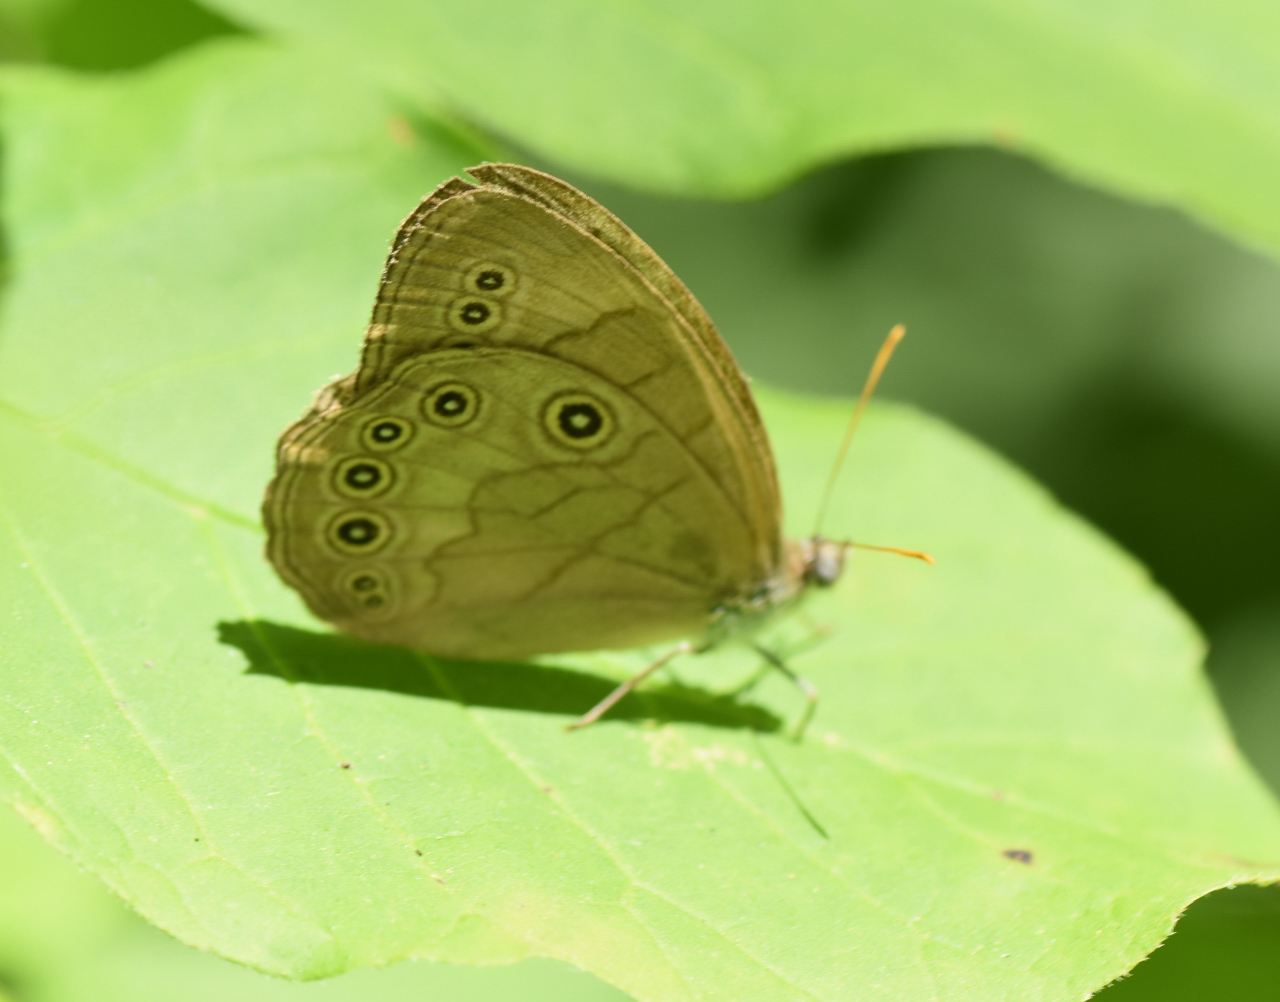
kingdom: Animalia
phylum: Arthropoda
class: Insecta
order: Lepidoptera
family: Nymphalidae
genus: Lethe
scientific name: Lethe eurydice
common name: Eyed brown
